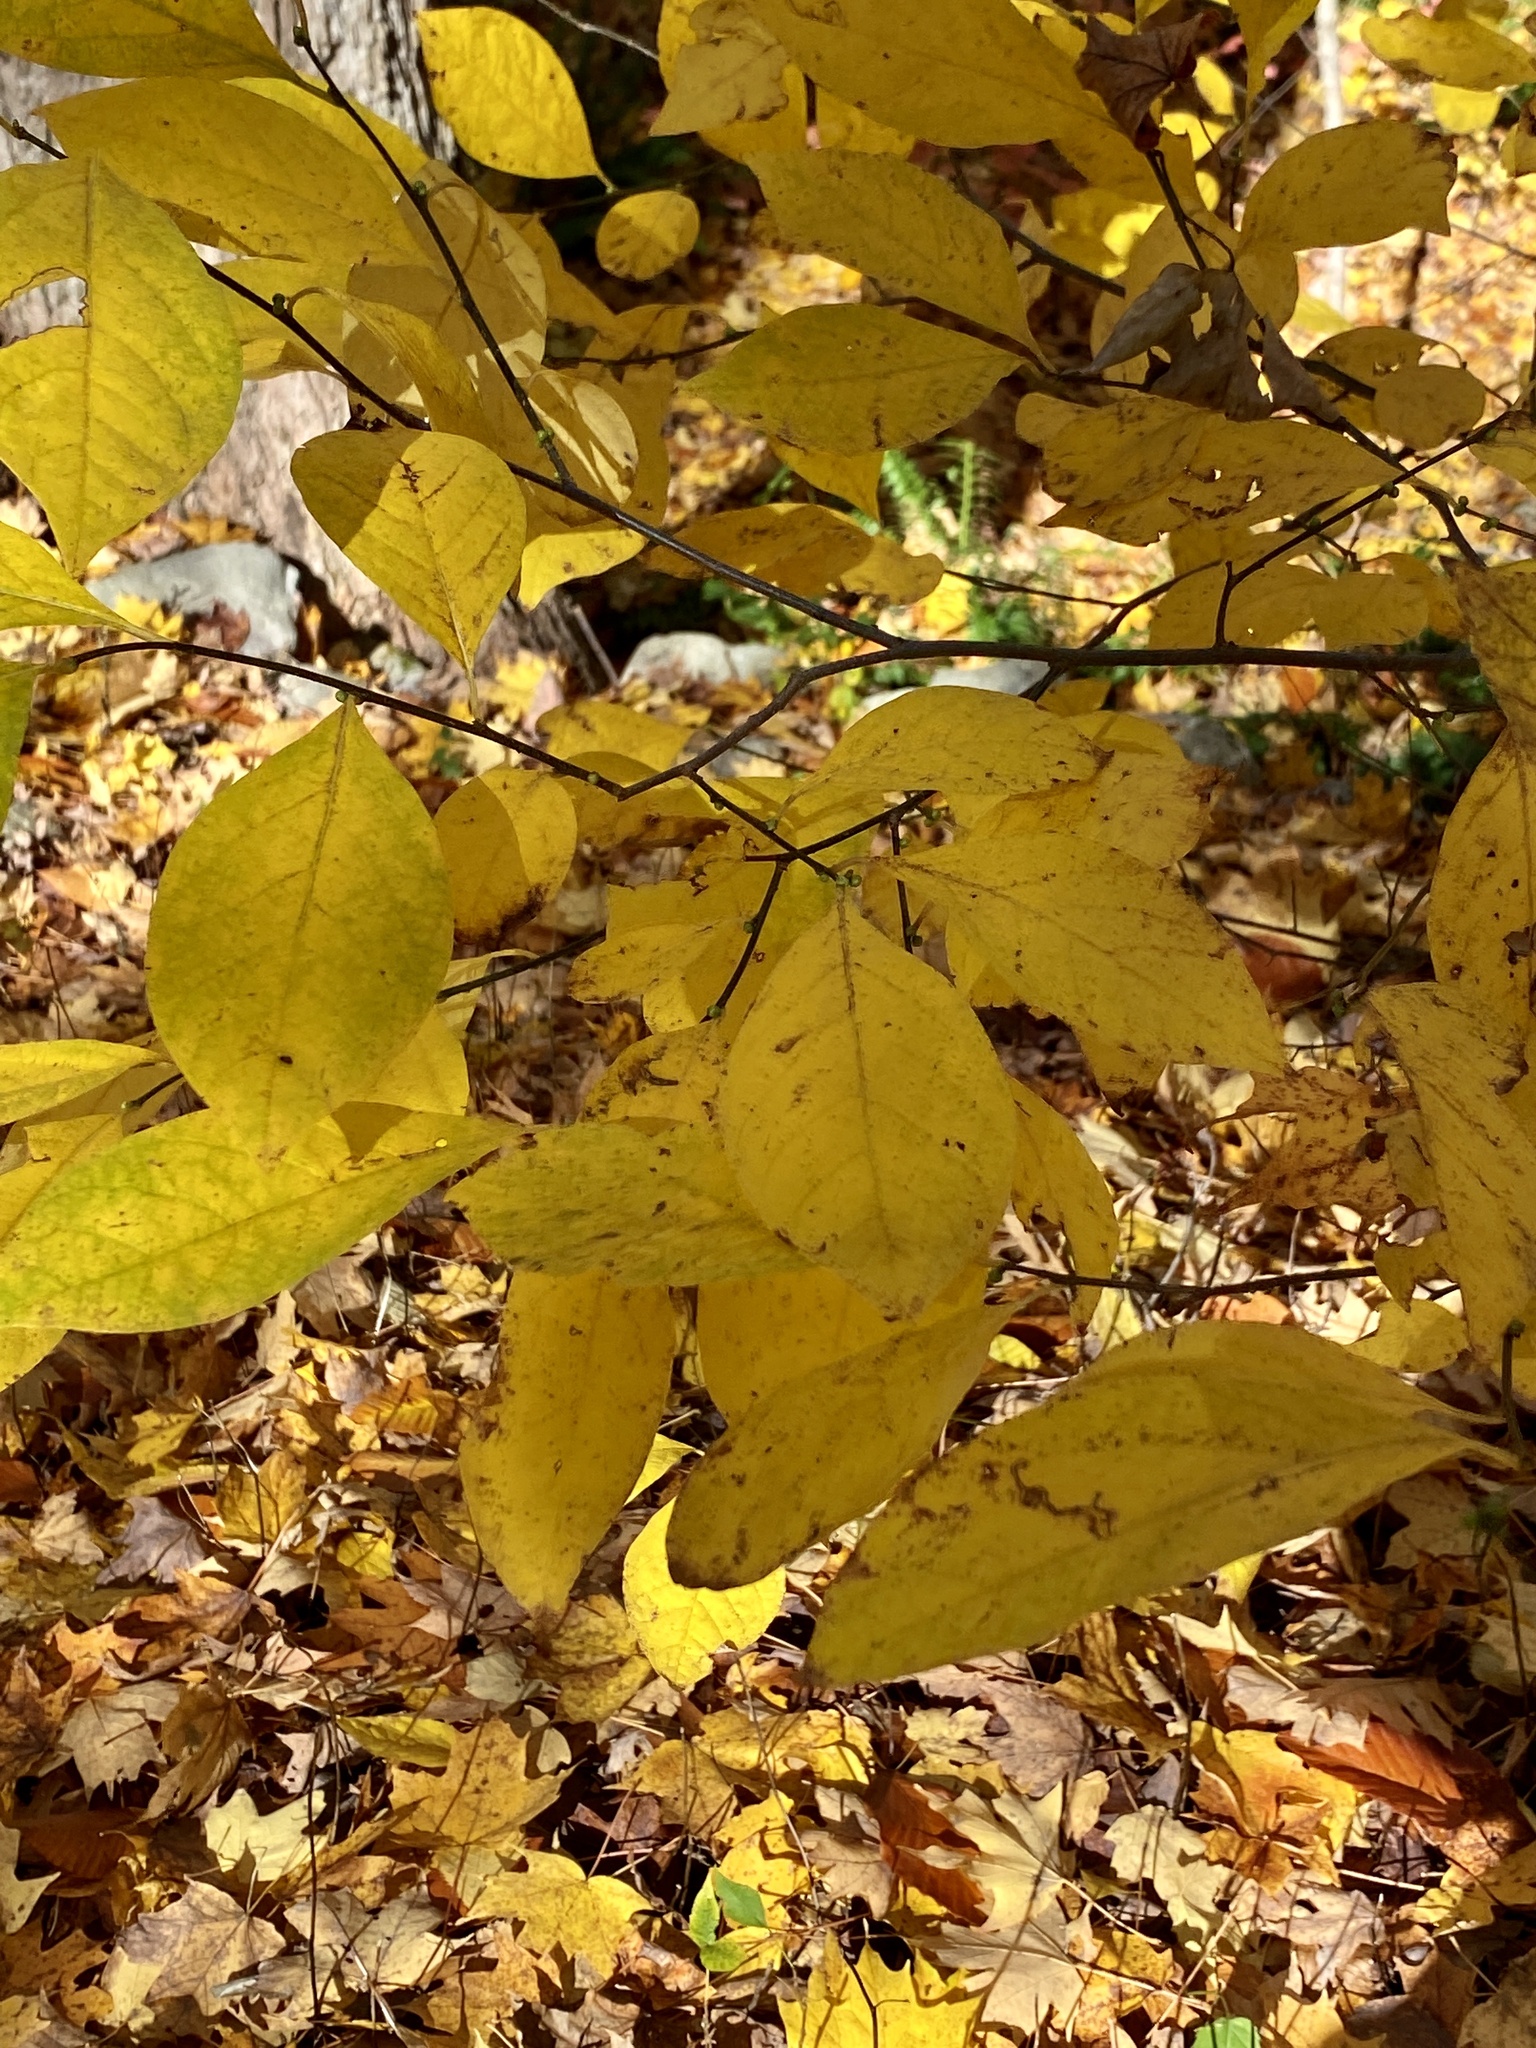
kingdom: Plantae
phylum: Tracheophyta
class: Magnoliopsida
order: Laurales
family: Lauraceae
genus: Lindera
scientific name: Lindera benzoin
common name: Spicebush
